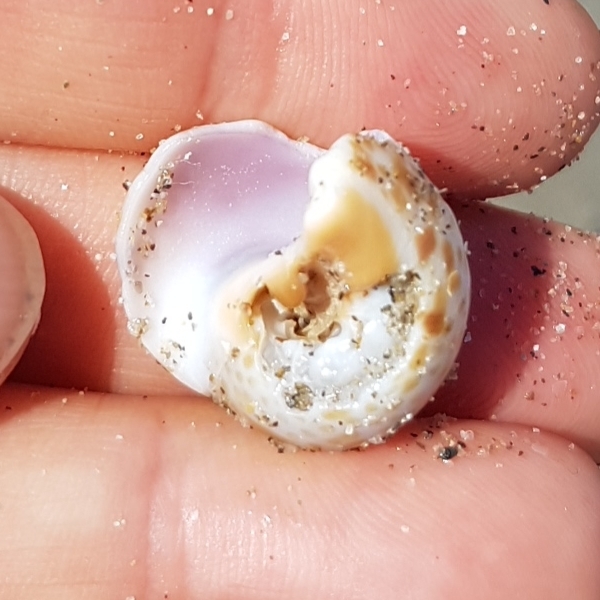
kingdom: Animalia
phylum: Mollusca
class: Gastropoda
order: Littorinimorpha
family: Naticidae
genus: Naticarius
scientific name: Naticarius hebraeus
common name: Hebrew moon shell
